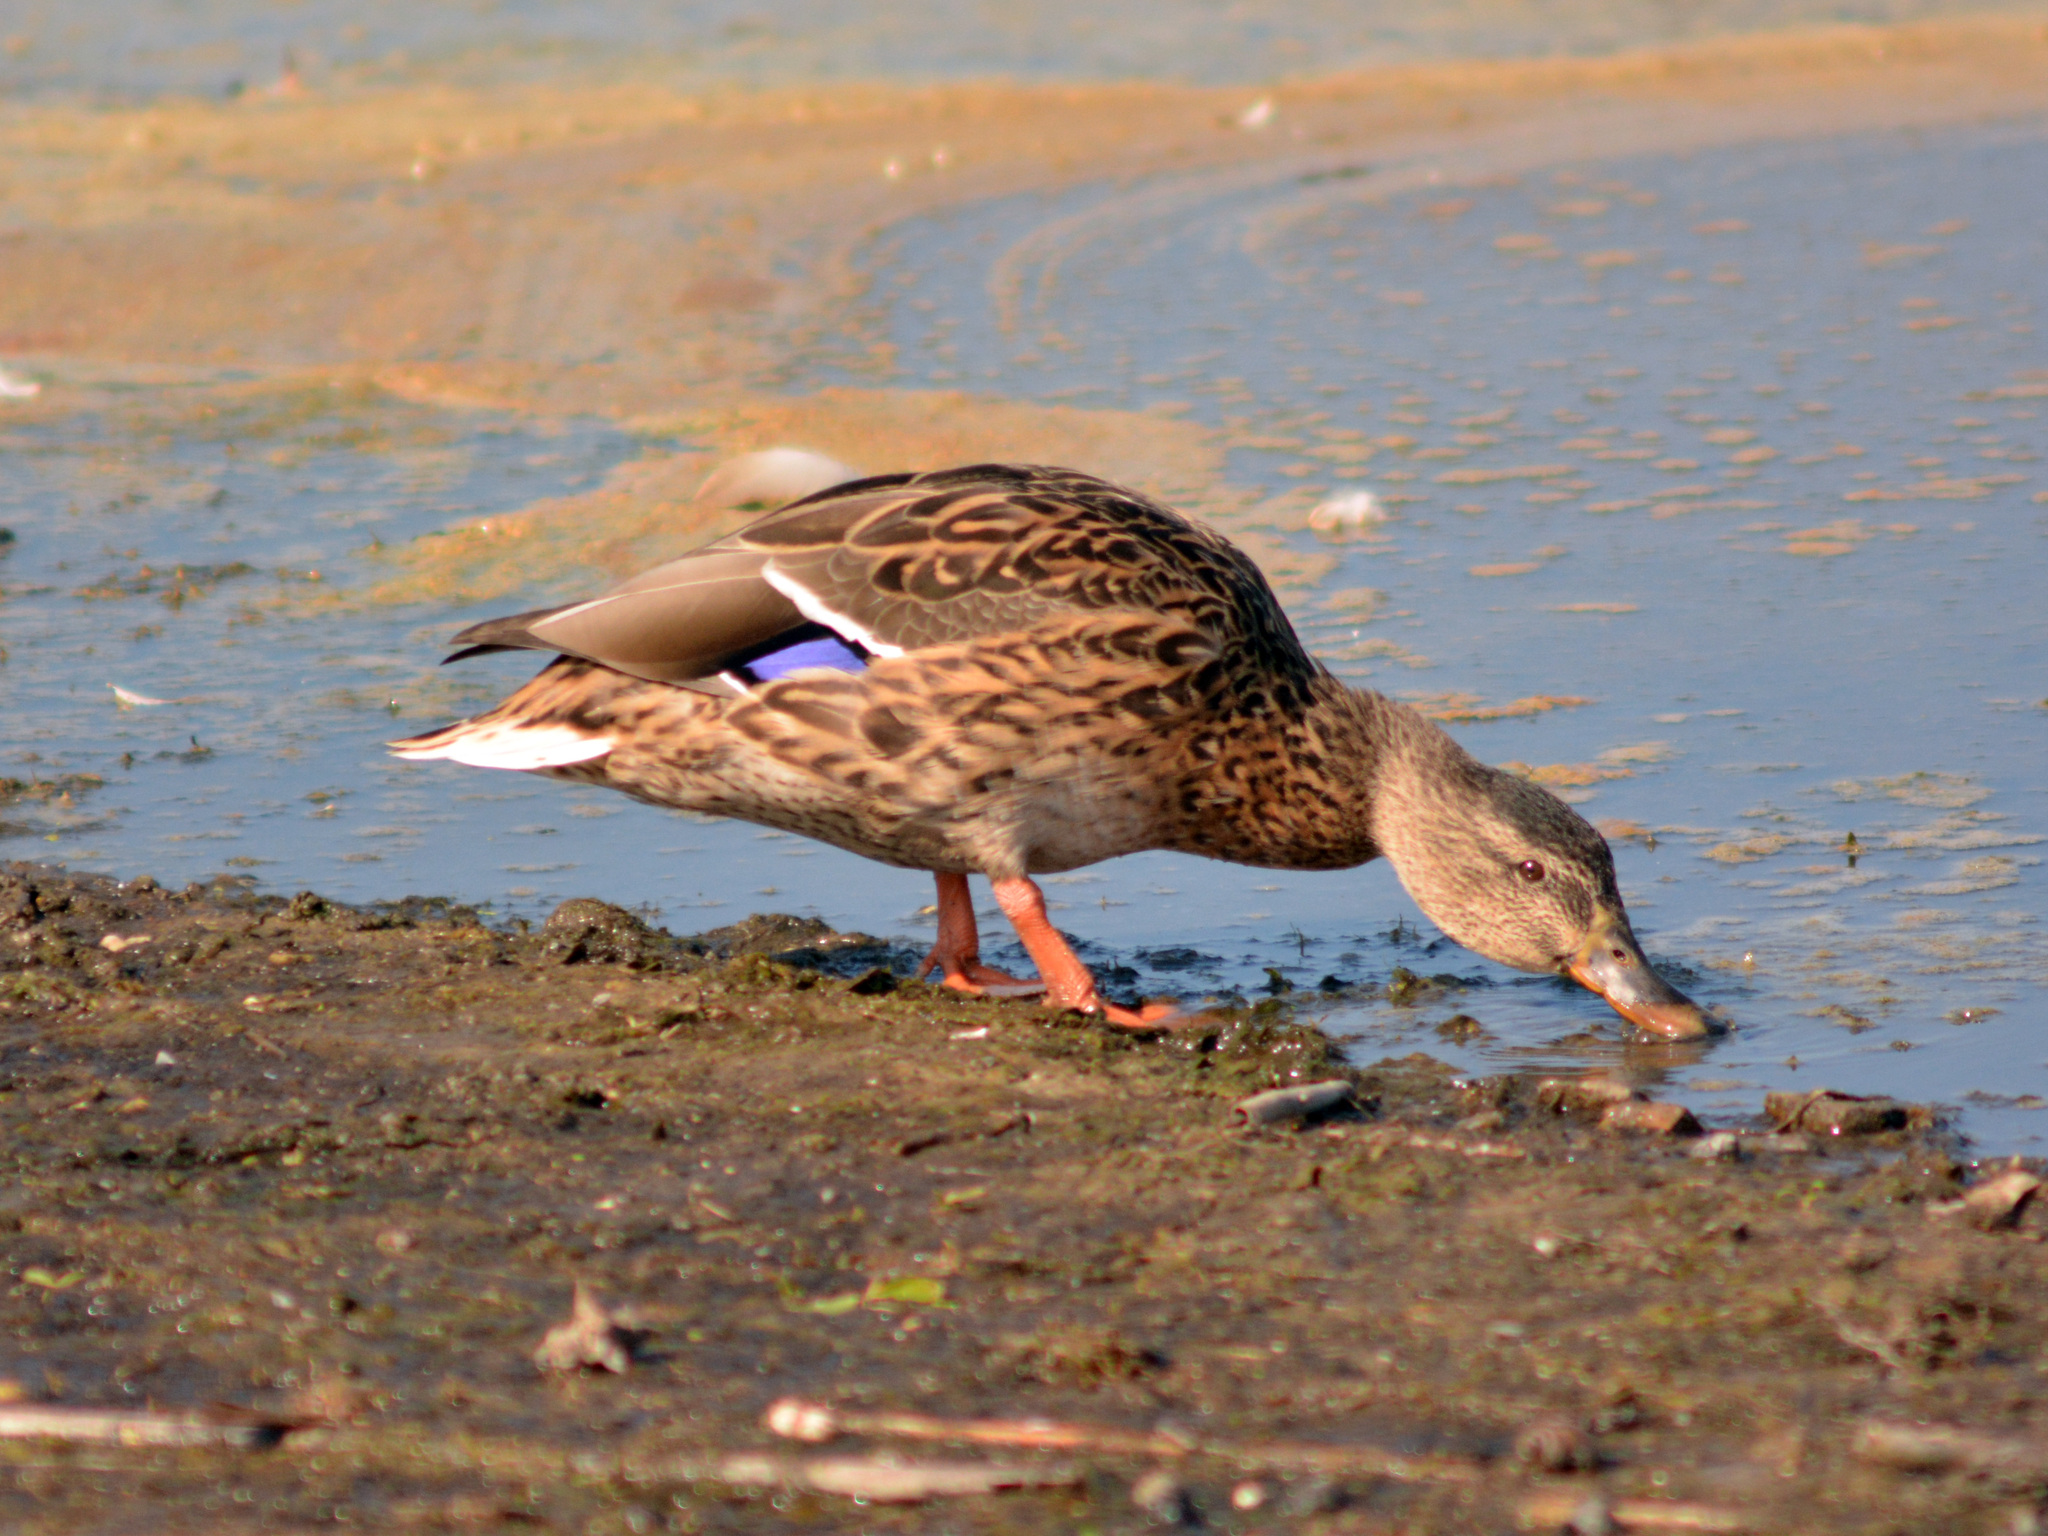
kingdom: Animalia
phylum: Chordata
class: Aves
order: Anseriformes
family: Anatidae
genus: Anas
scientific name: Anas platyrhynchos
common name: Mallard
